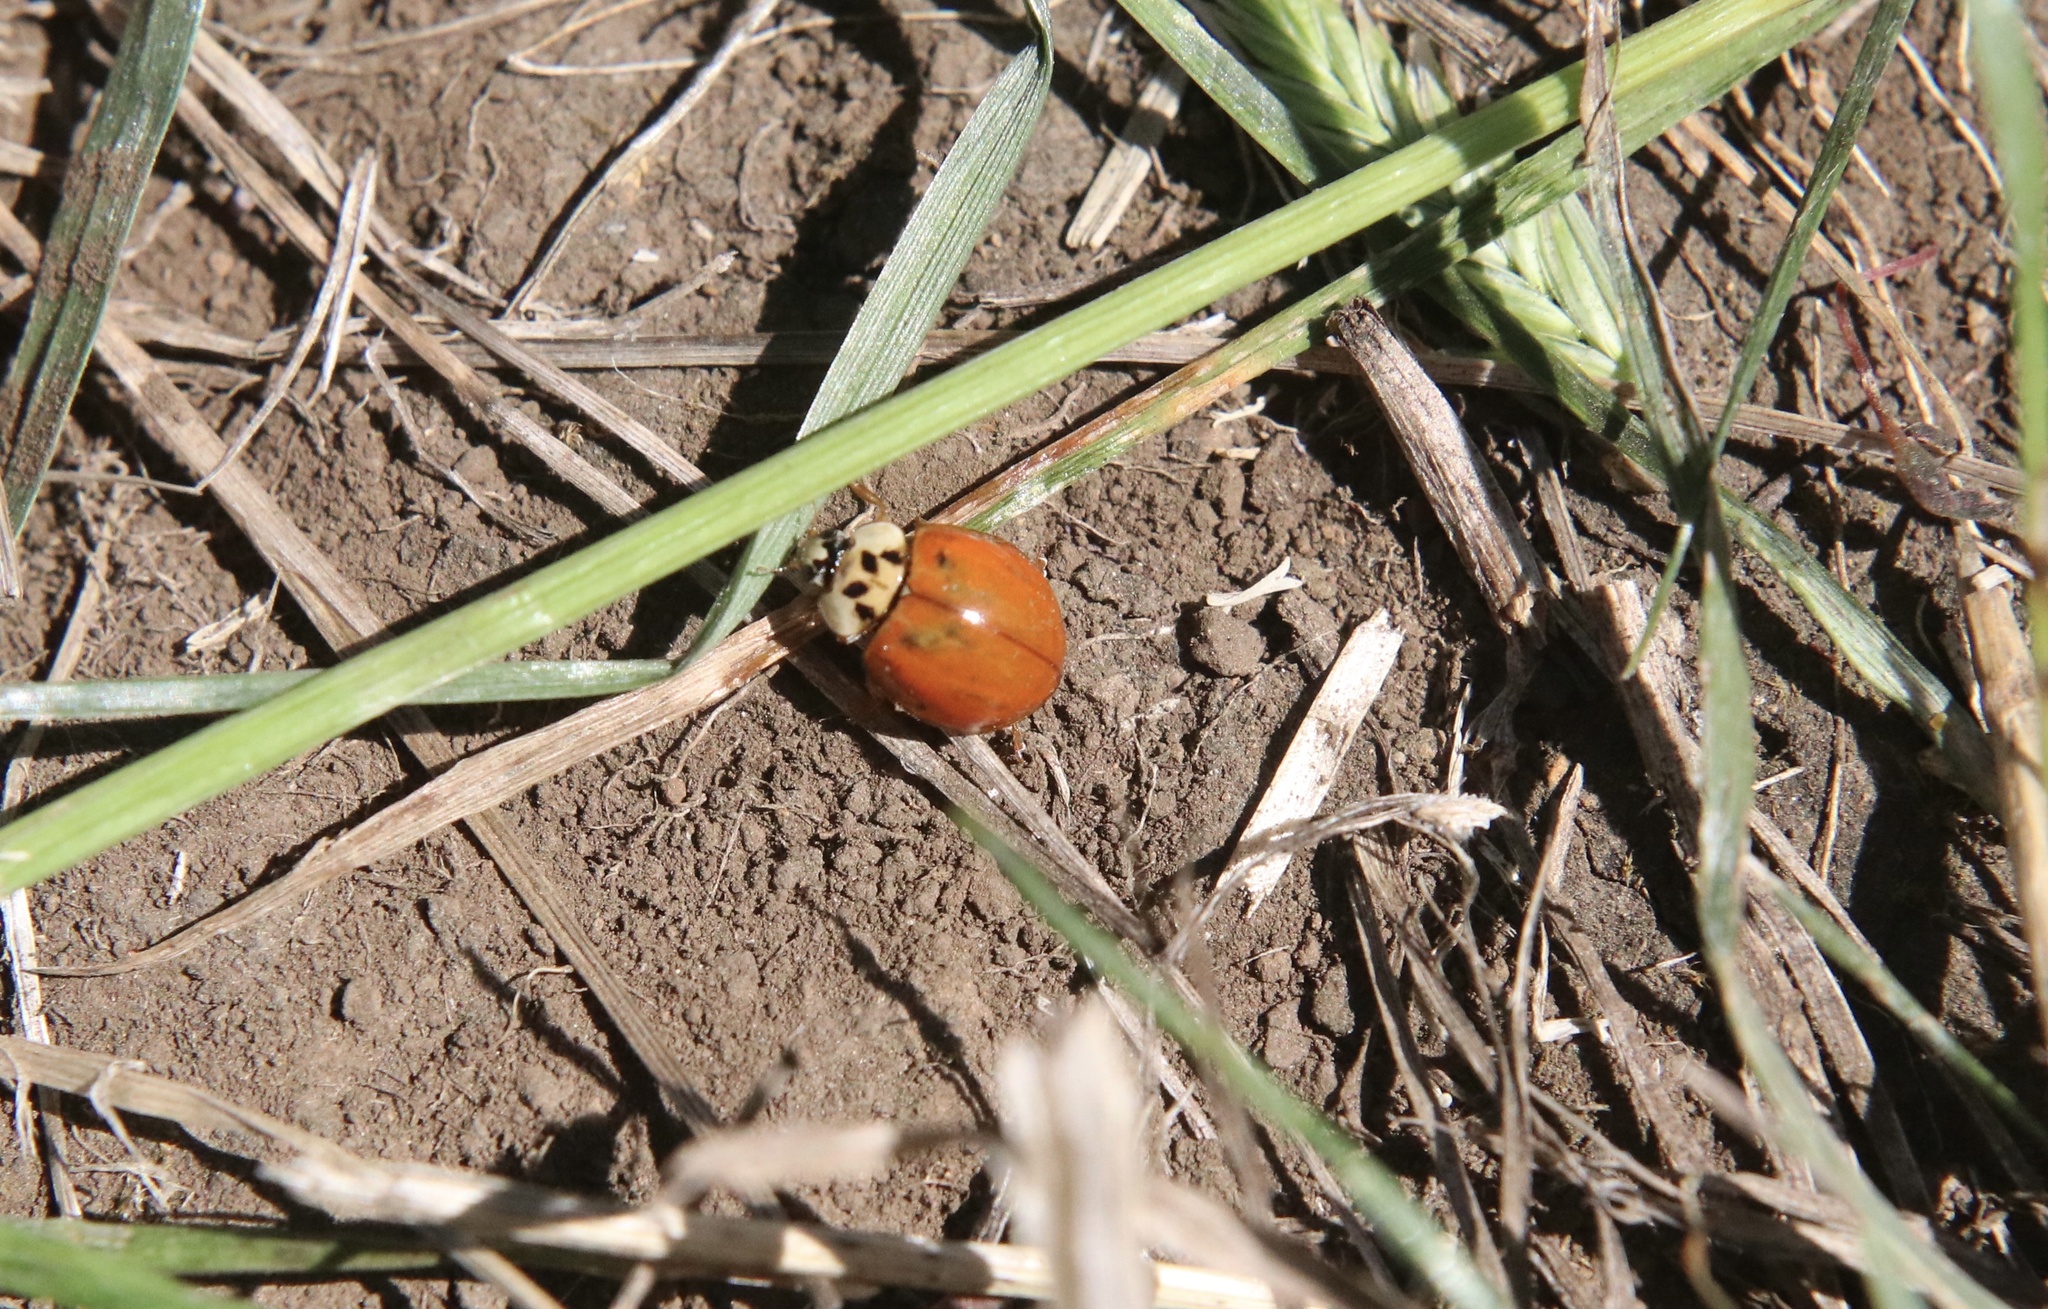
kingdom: Animalia
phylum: Arthropoda
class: Insecta
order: Coleoptera
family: Coccinellidae
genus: Harmonia
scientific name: Harmonia axyridis
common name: Harlequin ladybird
